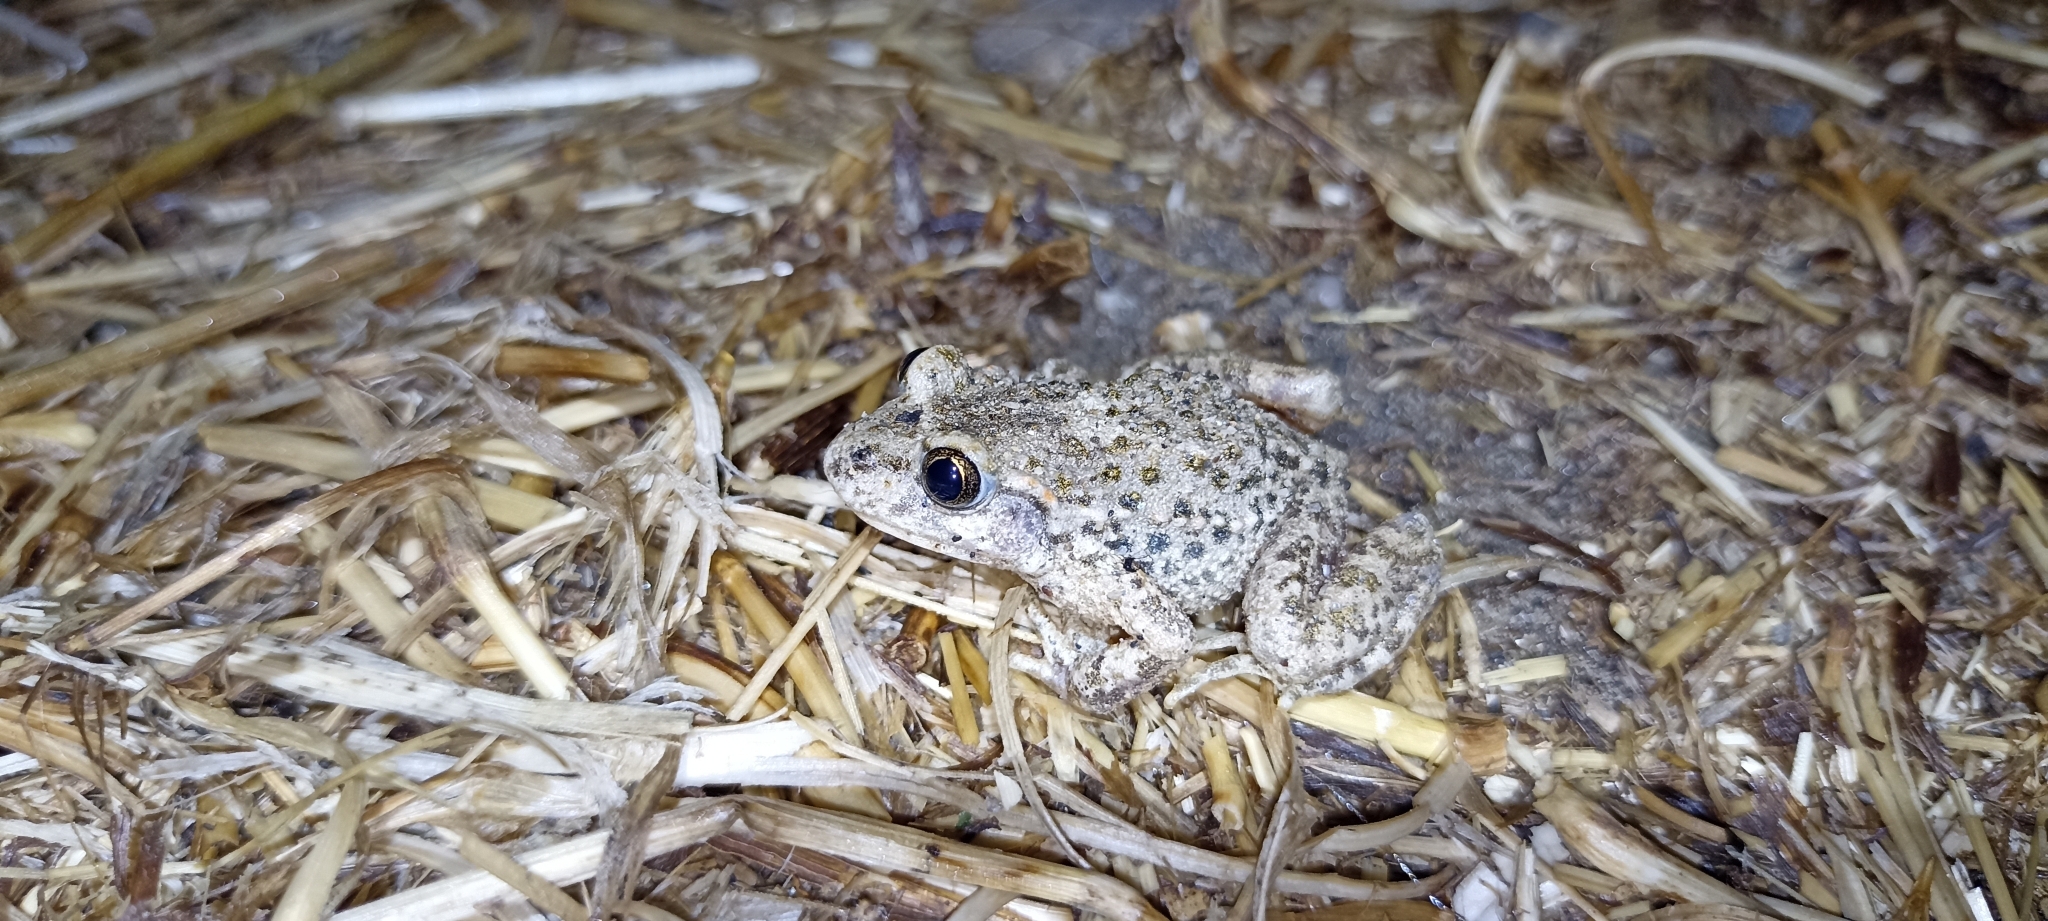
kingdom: Animalia
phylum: Chordata
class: Amphibia
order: Anura
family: Alytidae
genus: Alytes
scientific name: Alytes obstetricans
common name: Midwife toad
